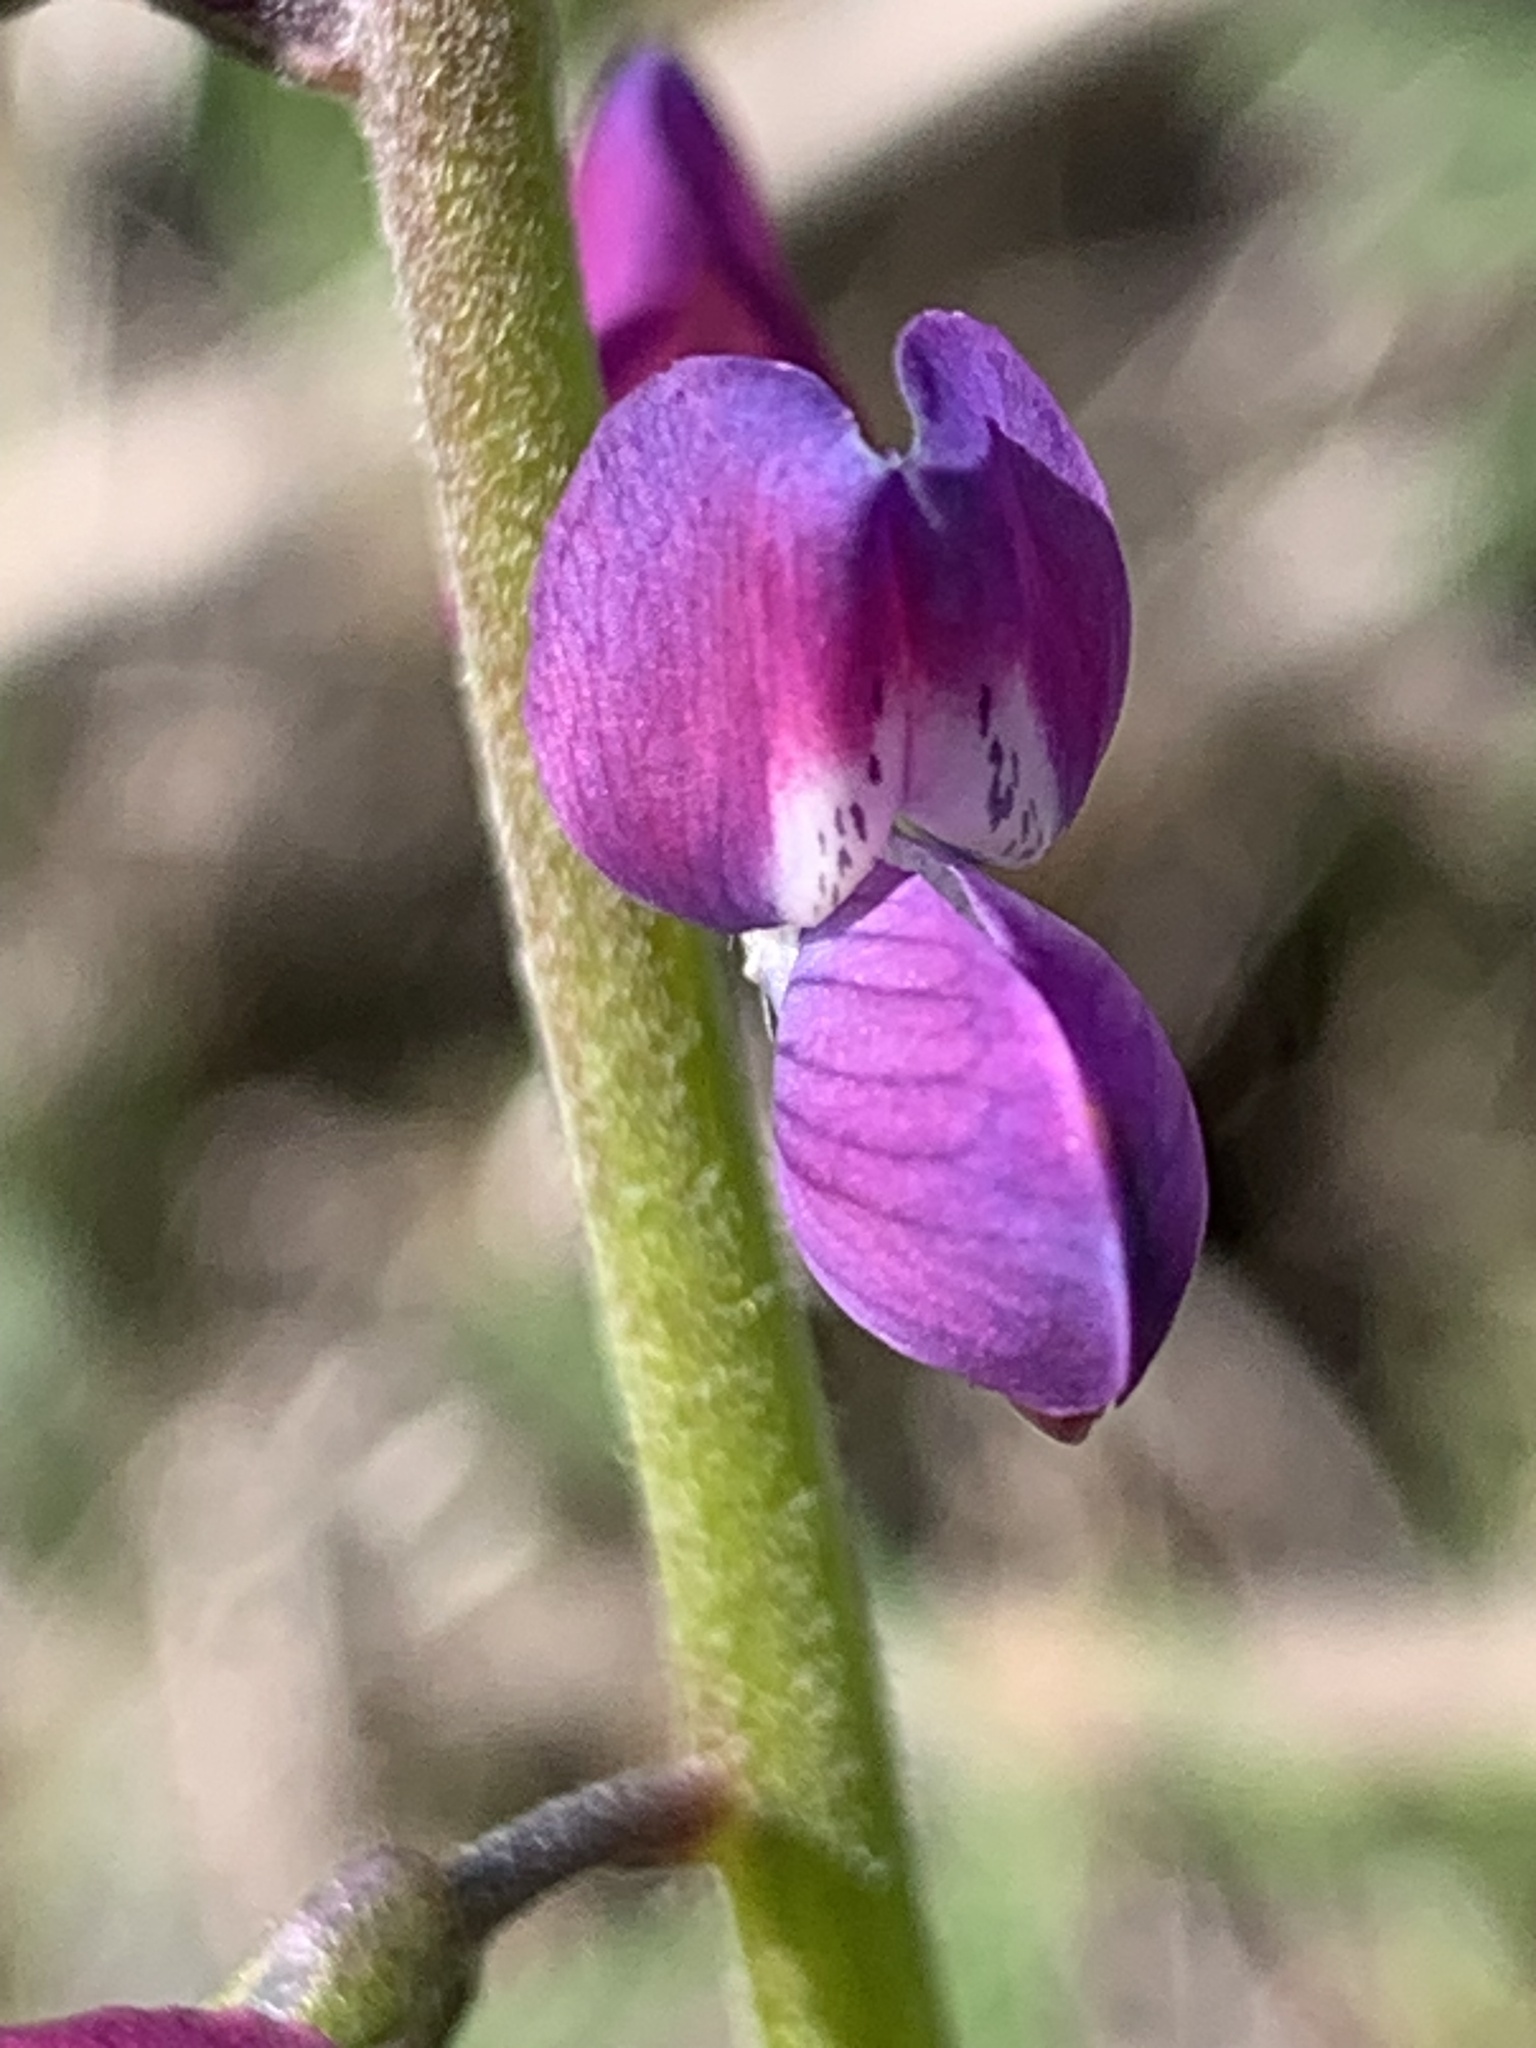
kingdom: Plantae
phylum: Tracheophyta
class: Magnoliopsida
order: Fabales
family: Fabaceae
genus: Lupinus
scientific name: Lupinus truncatus
